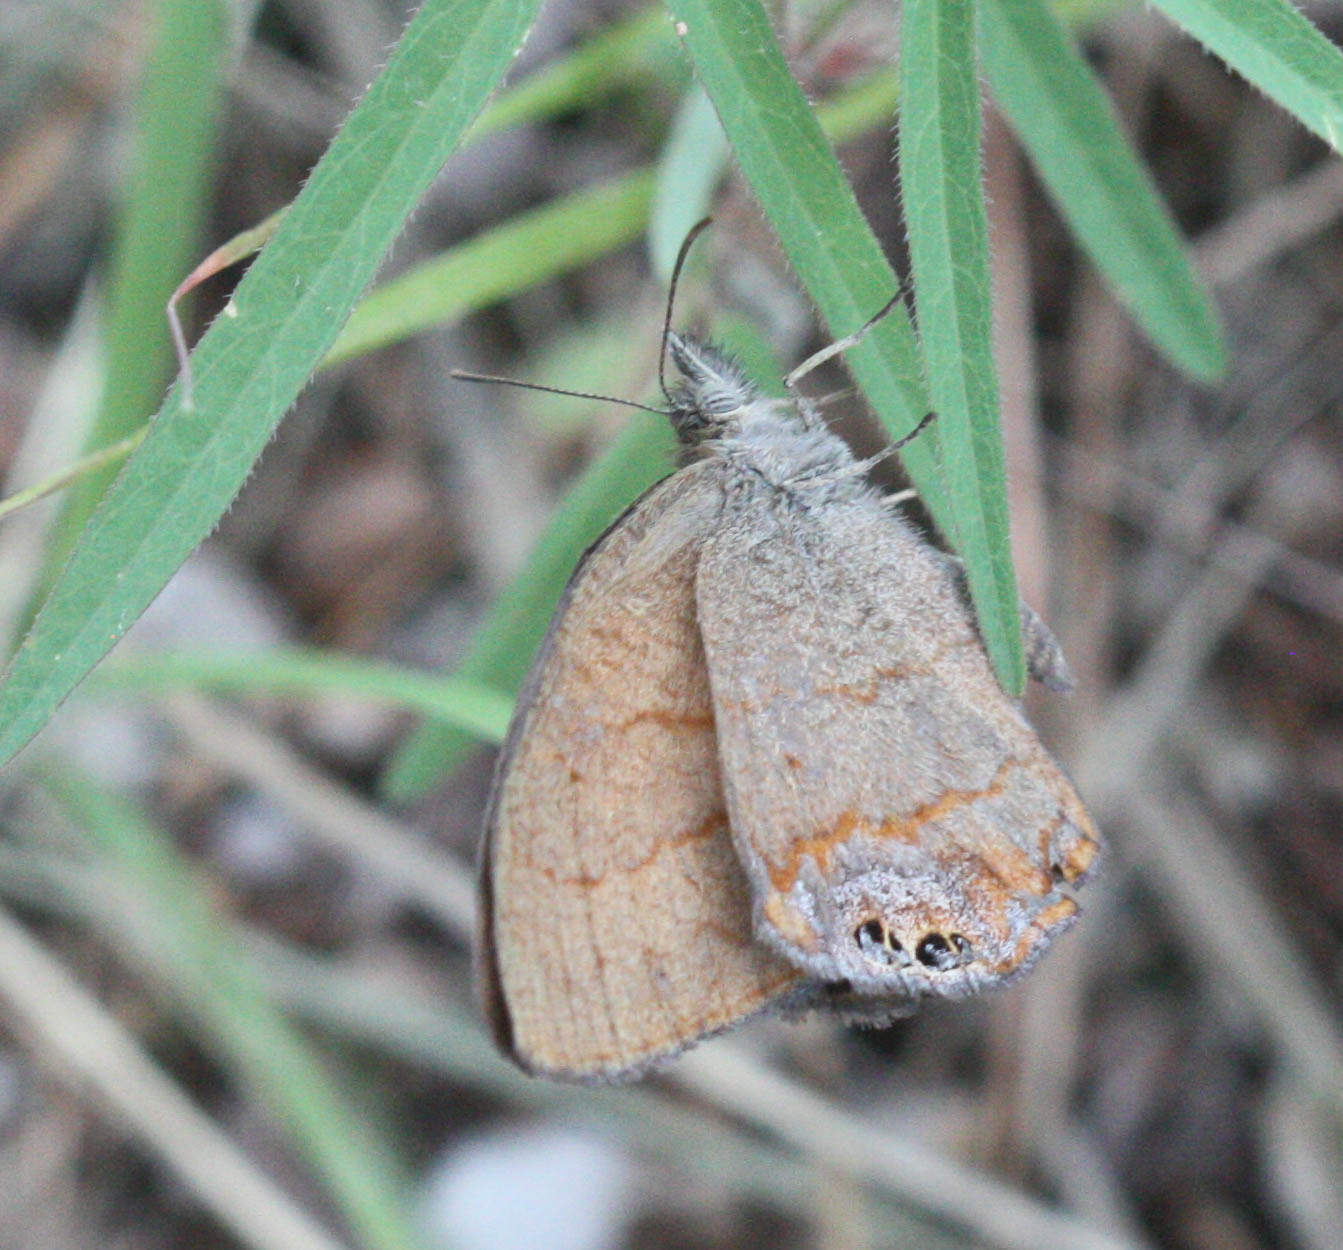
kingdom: Animalia
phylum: Arthropoda
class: Insecta
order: Lepidoptera
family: Nymphalidae
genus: Euptychia
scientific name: Euptychia pyracmon
